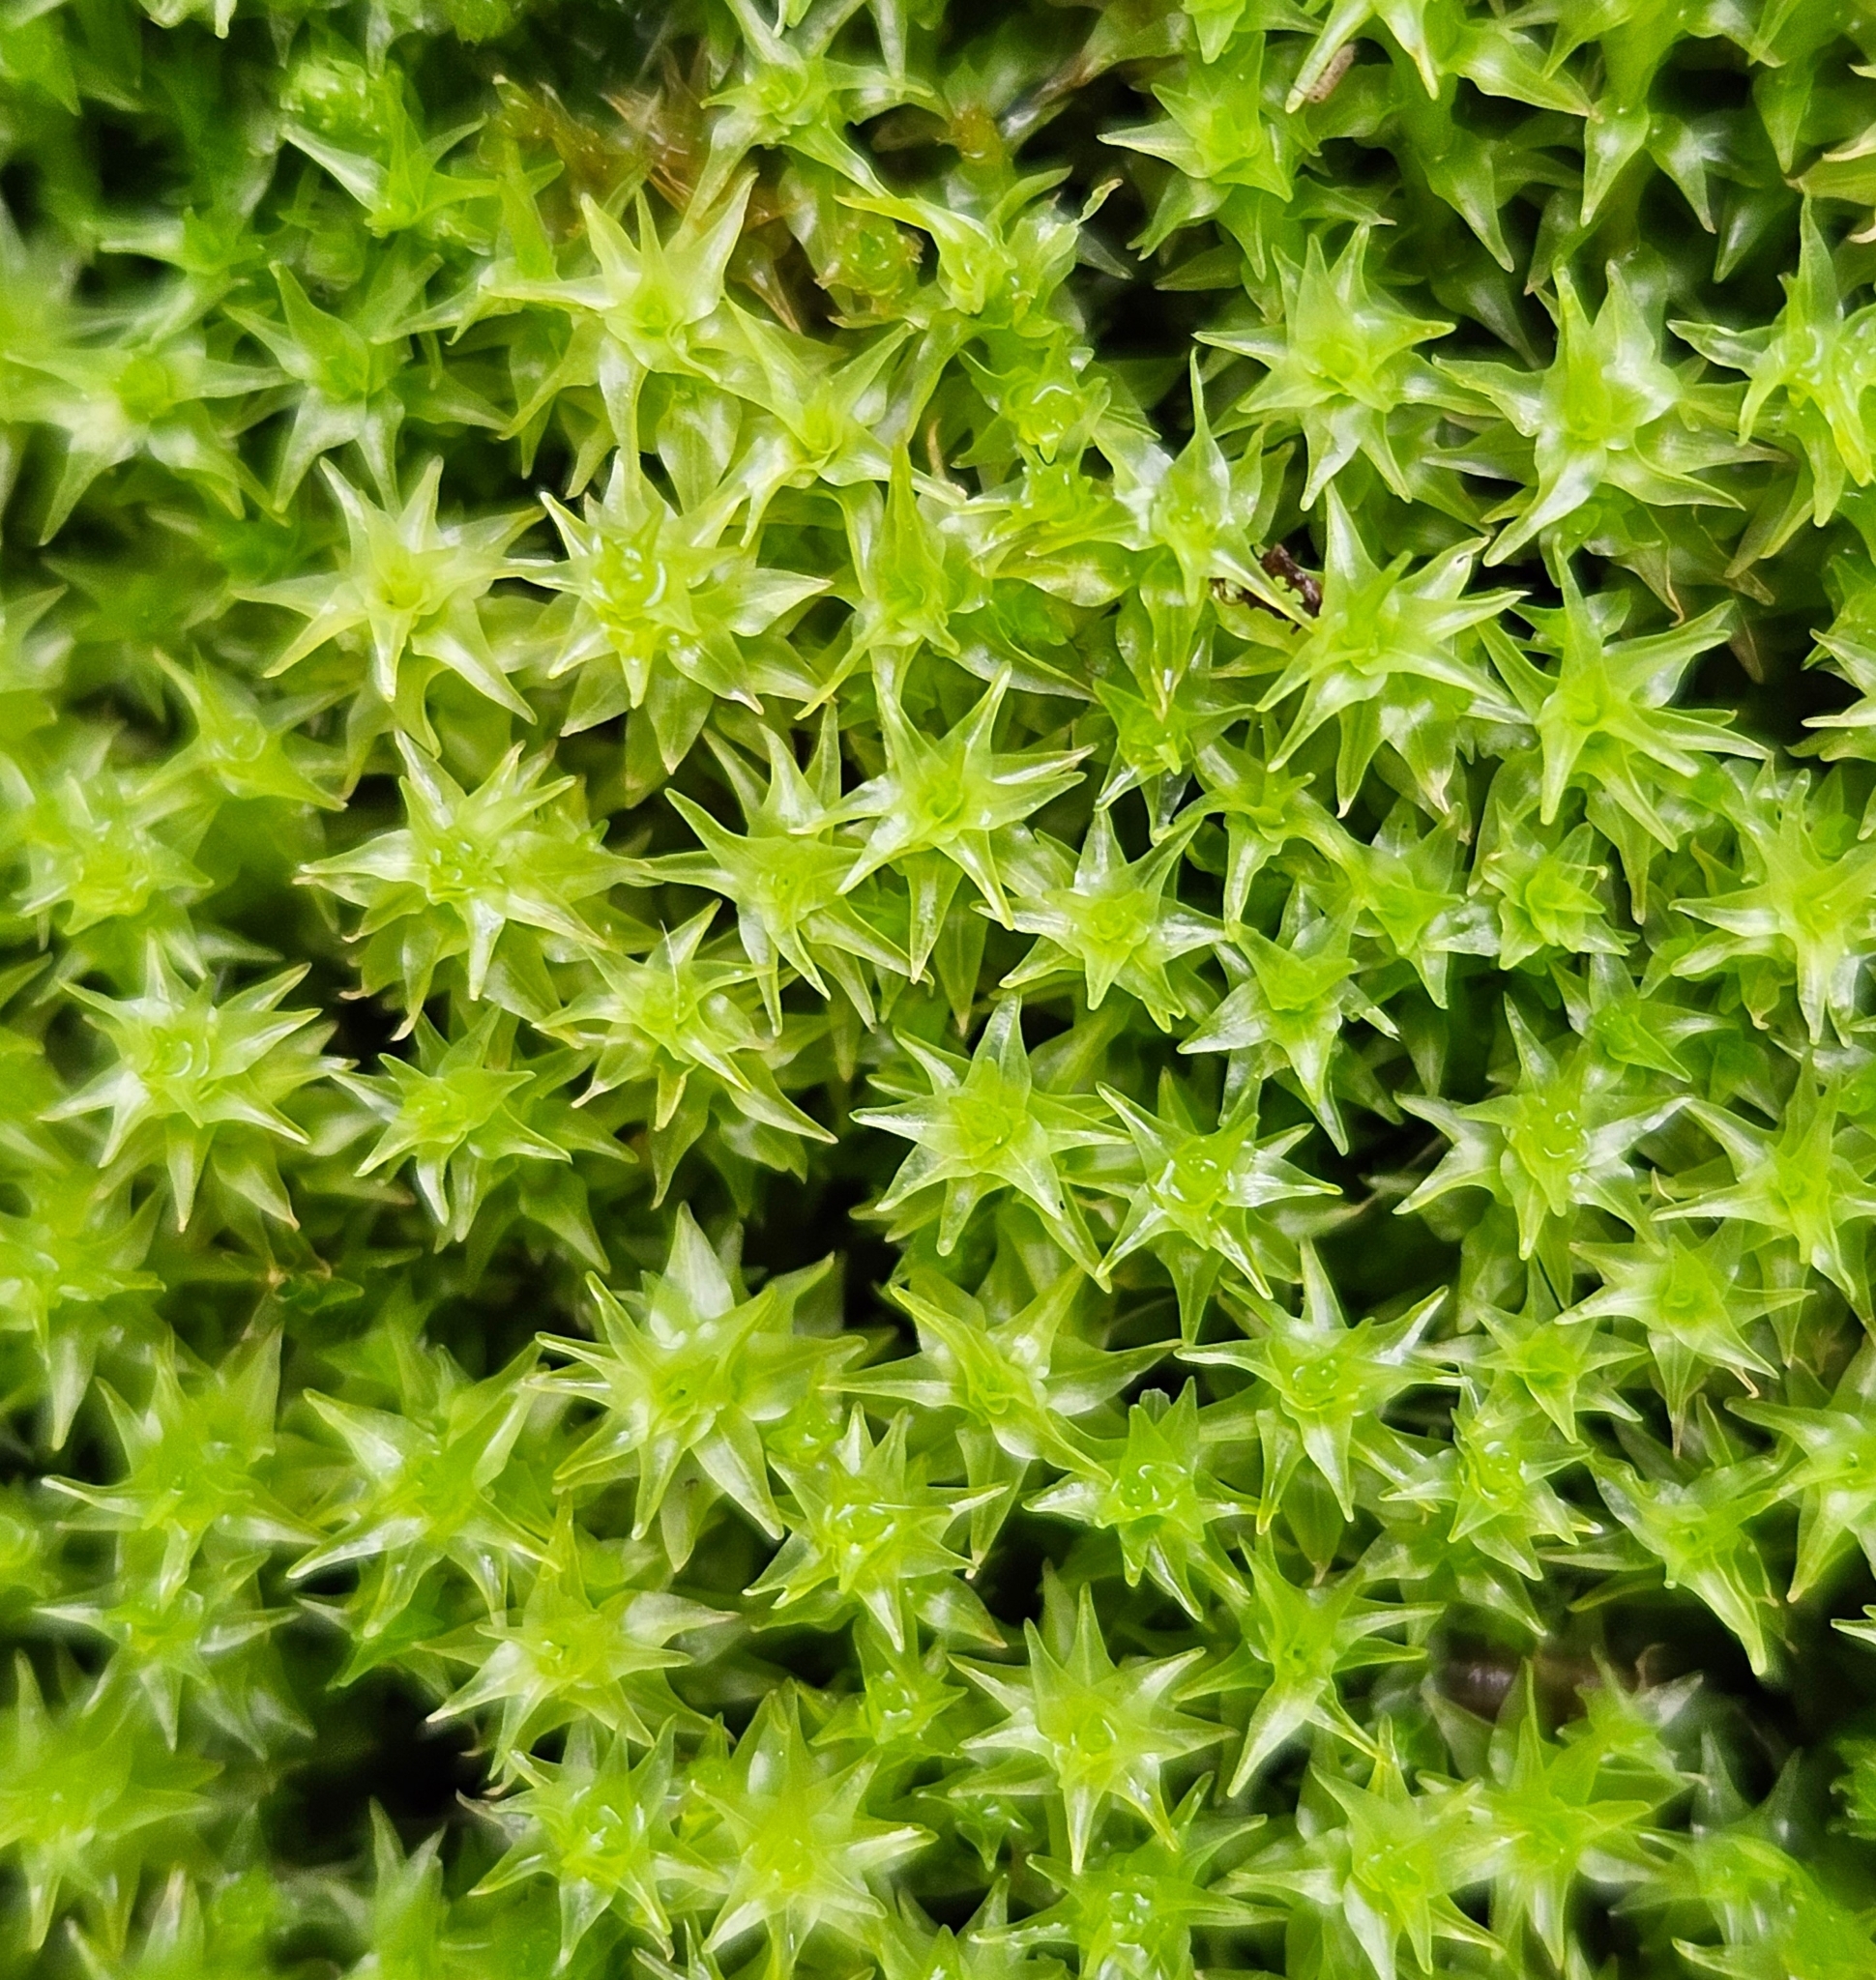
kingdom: Plantae
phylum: Bryophyta
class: Bryopsida
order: Dicranales
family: Aongstroemiaceae
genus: Diobelonella
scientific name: Diobelonella palustris
